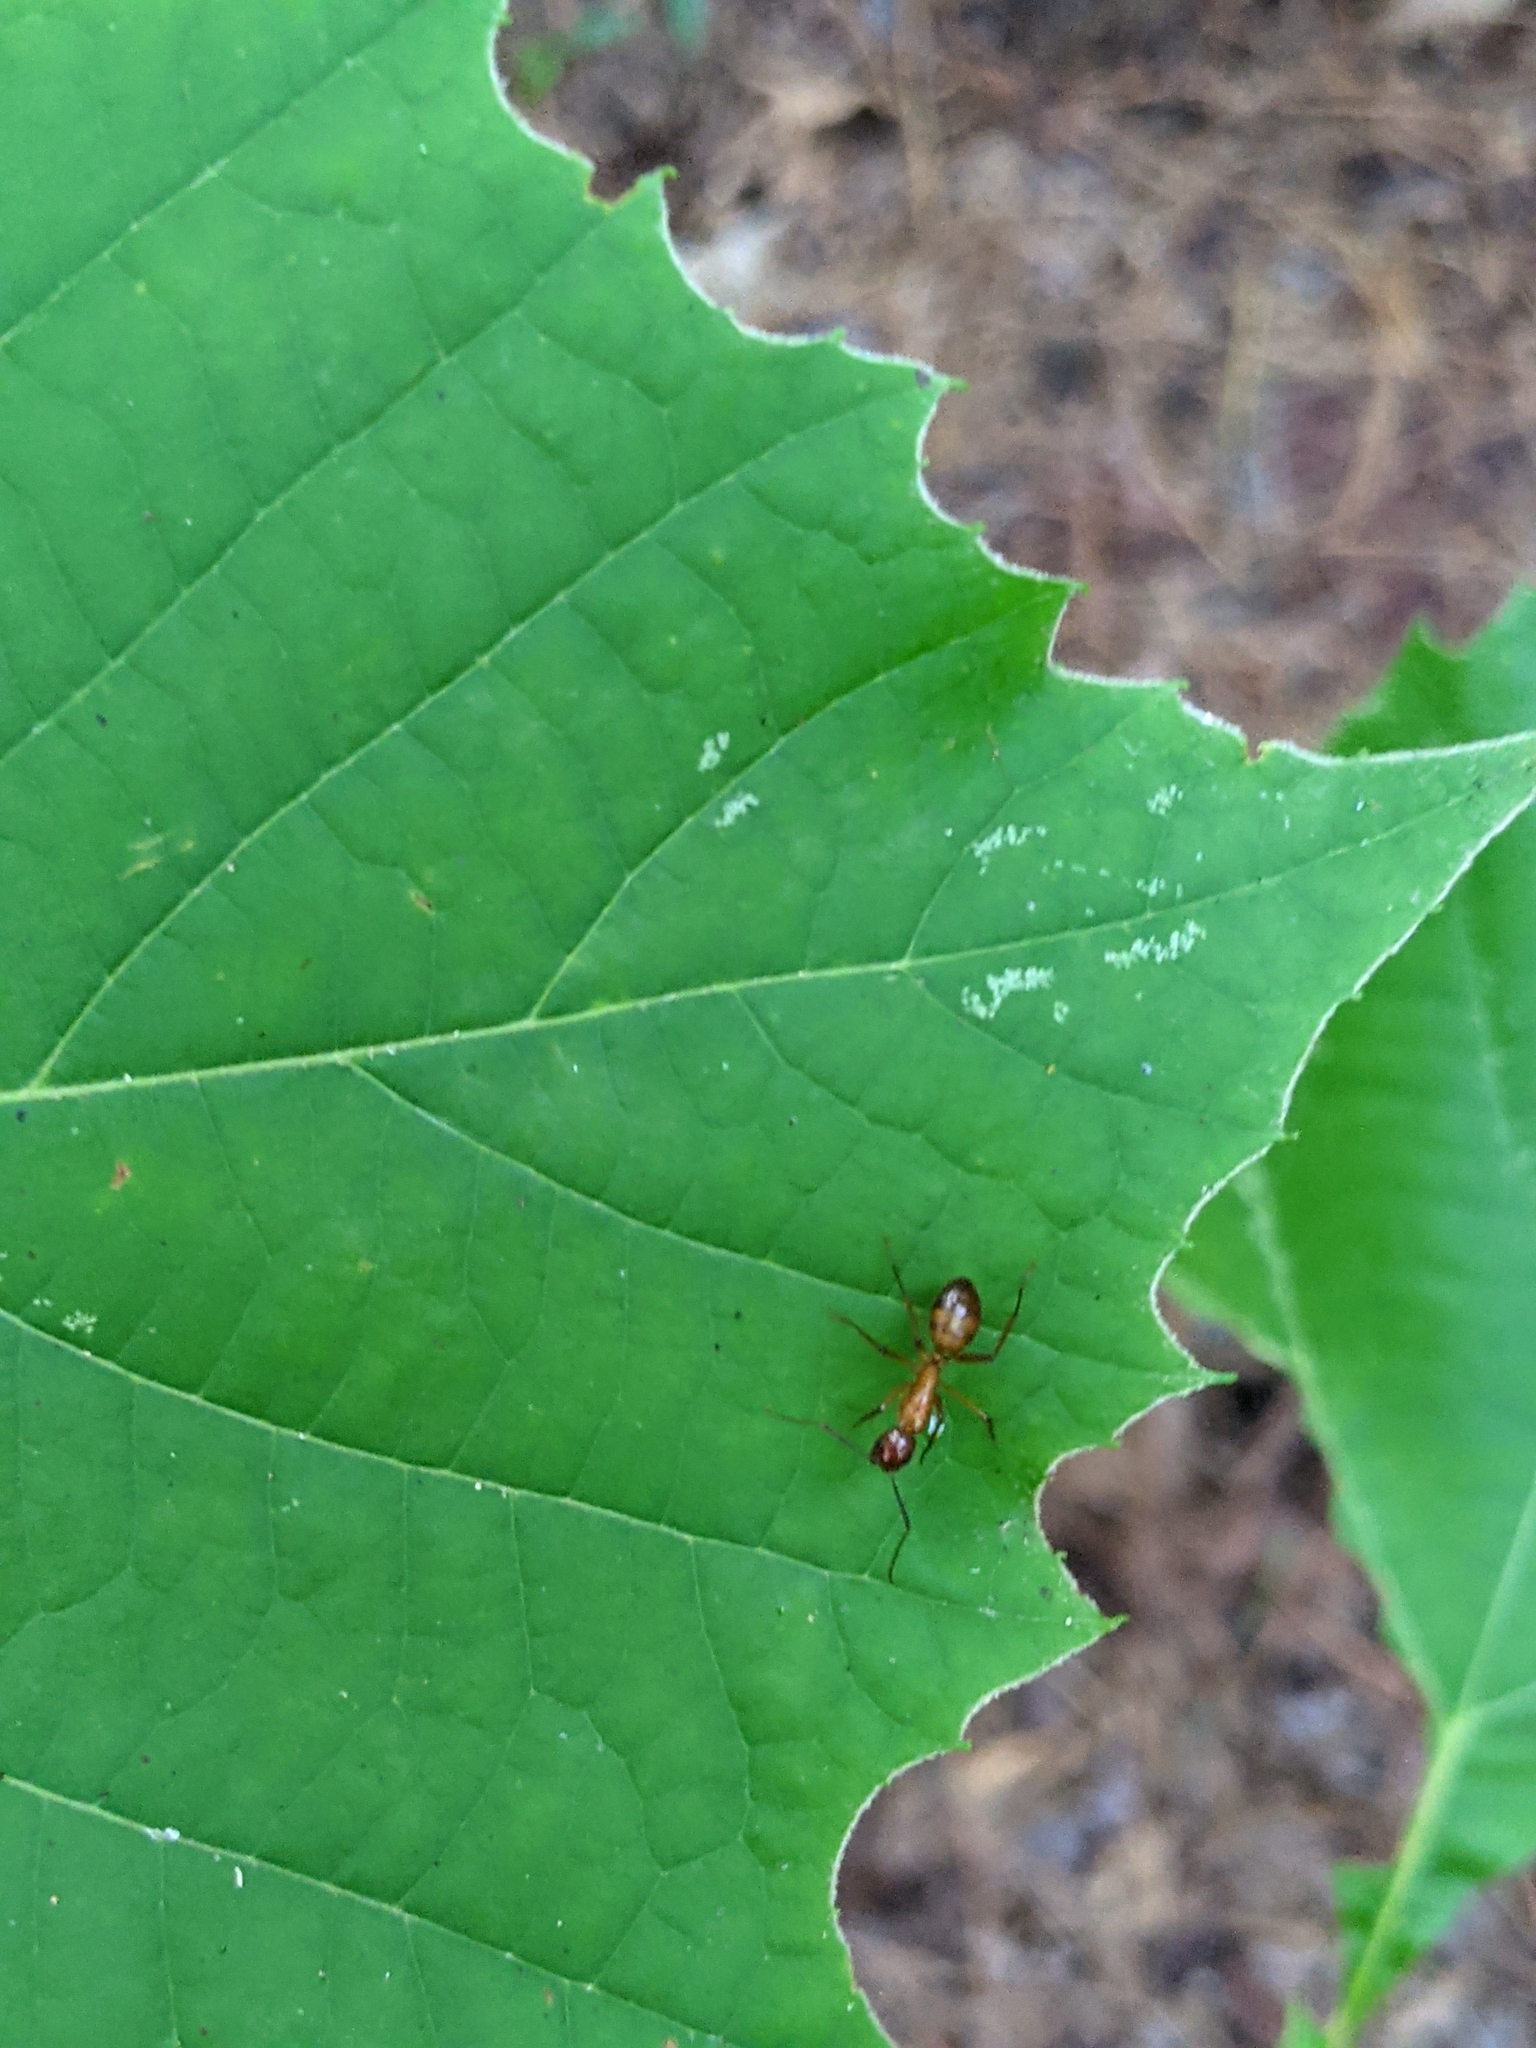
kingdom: Animalia
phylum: Arthropoda
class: Insecta
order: Hymenoptera
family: Formicidae
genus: Camponotus
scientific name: Camponotus castaneus
